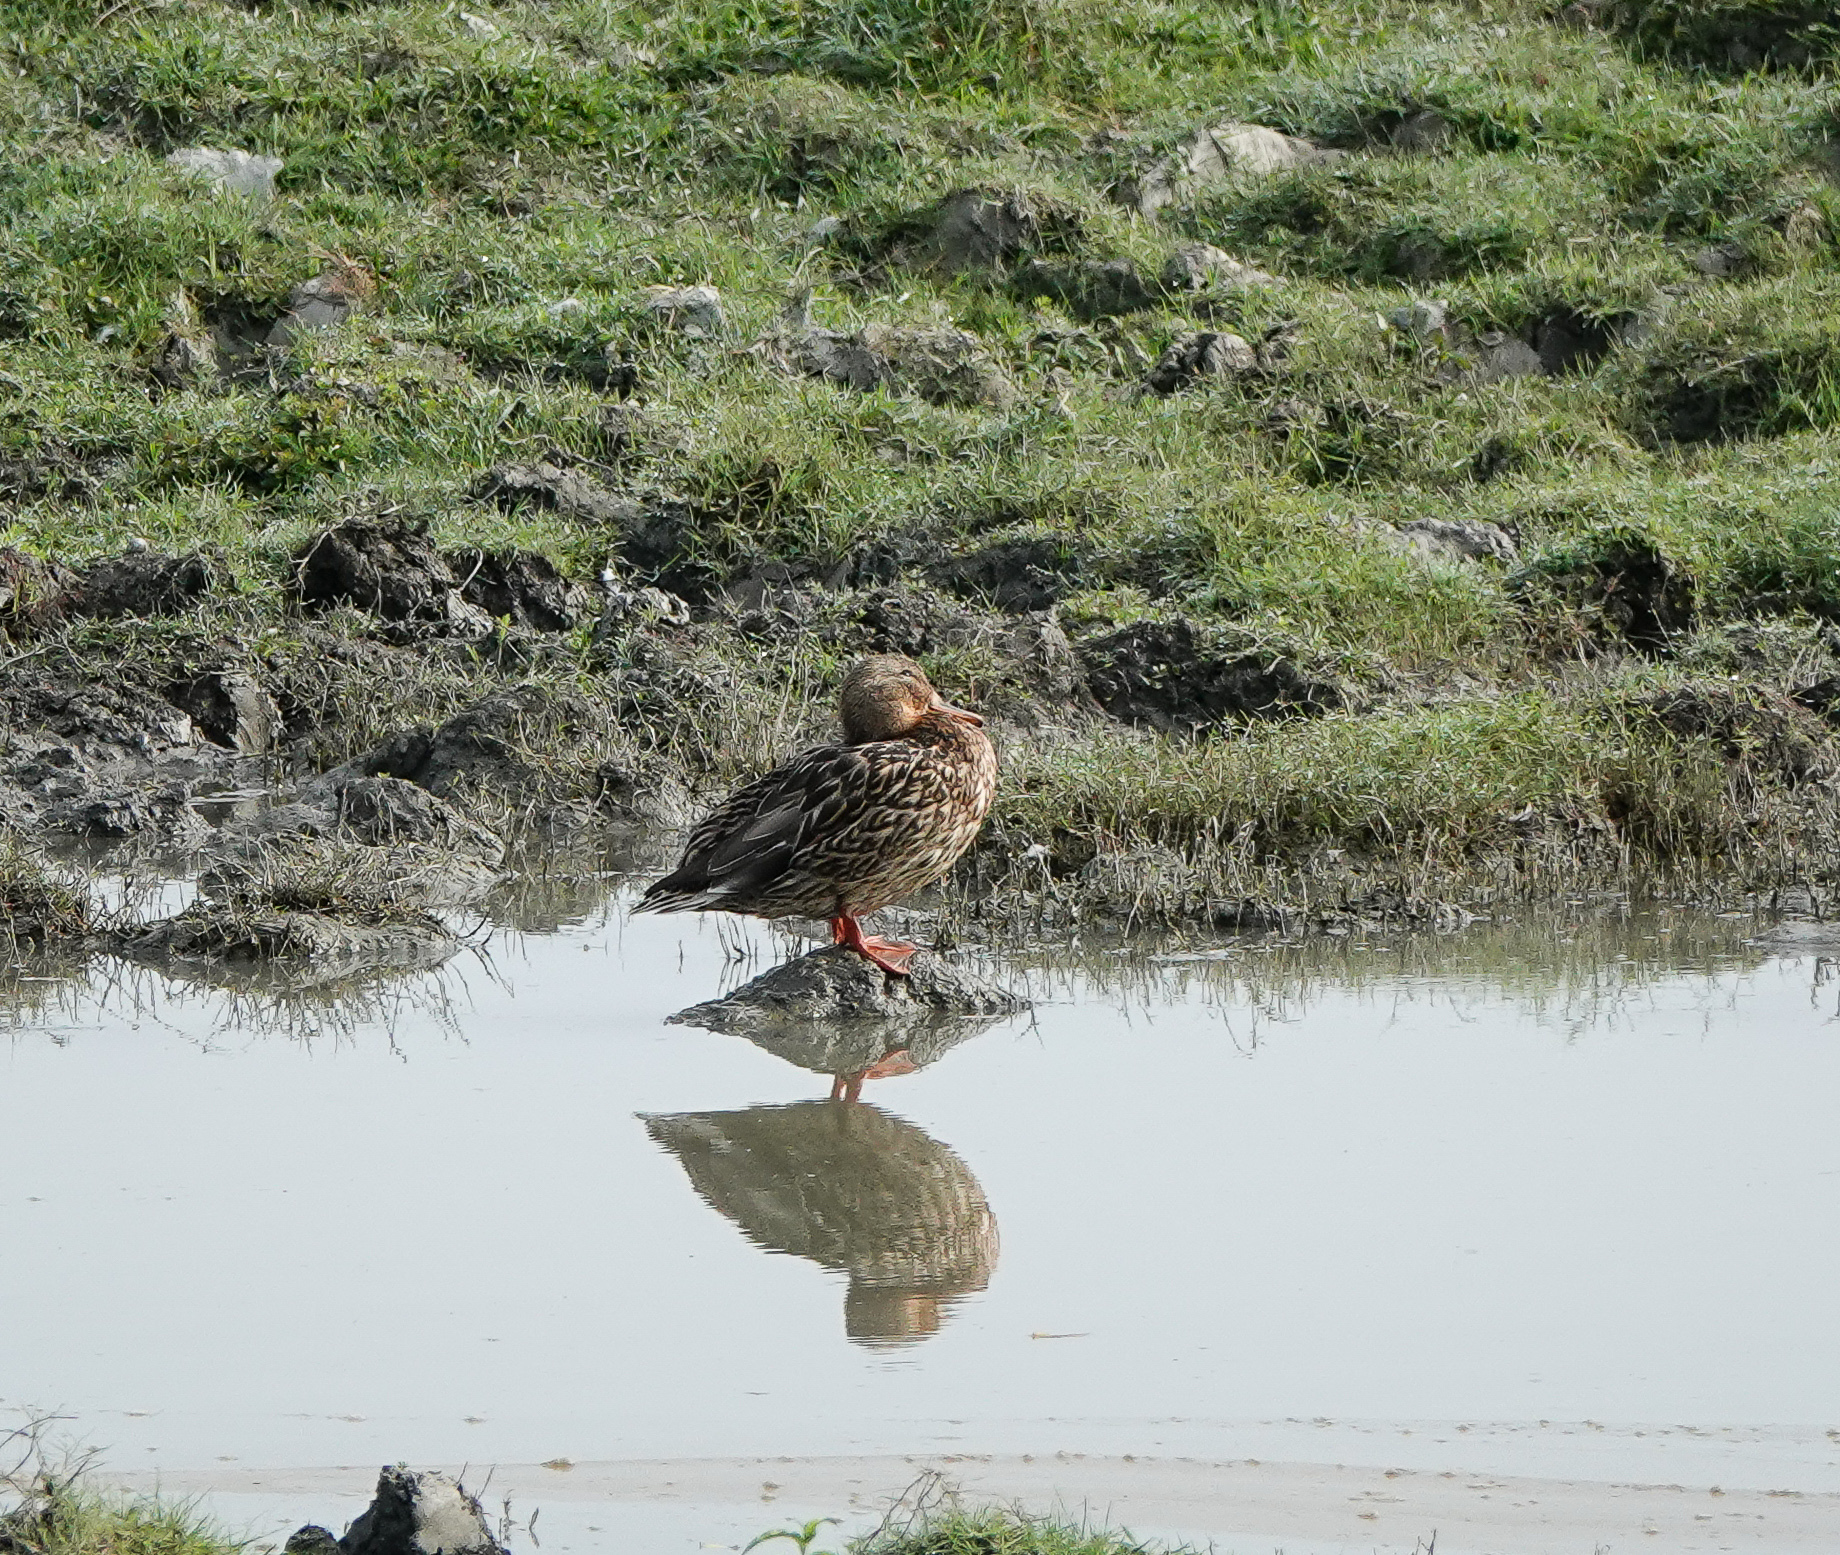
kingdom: Animalia
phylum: Chordata
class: Aves
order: Anseriformes
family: Anatidae
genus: Anas
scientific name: Anas platyrhynchos
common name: Mallard
